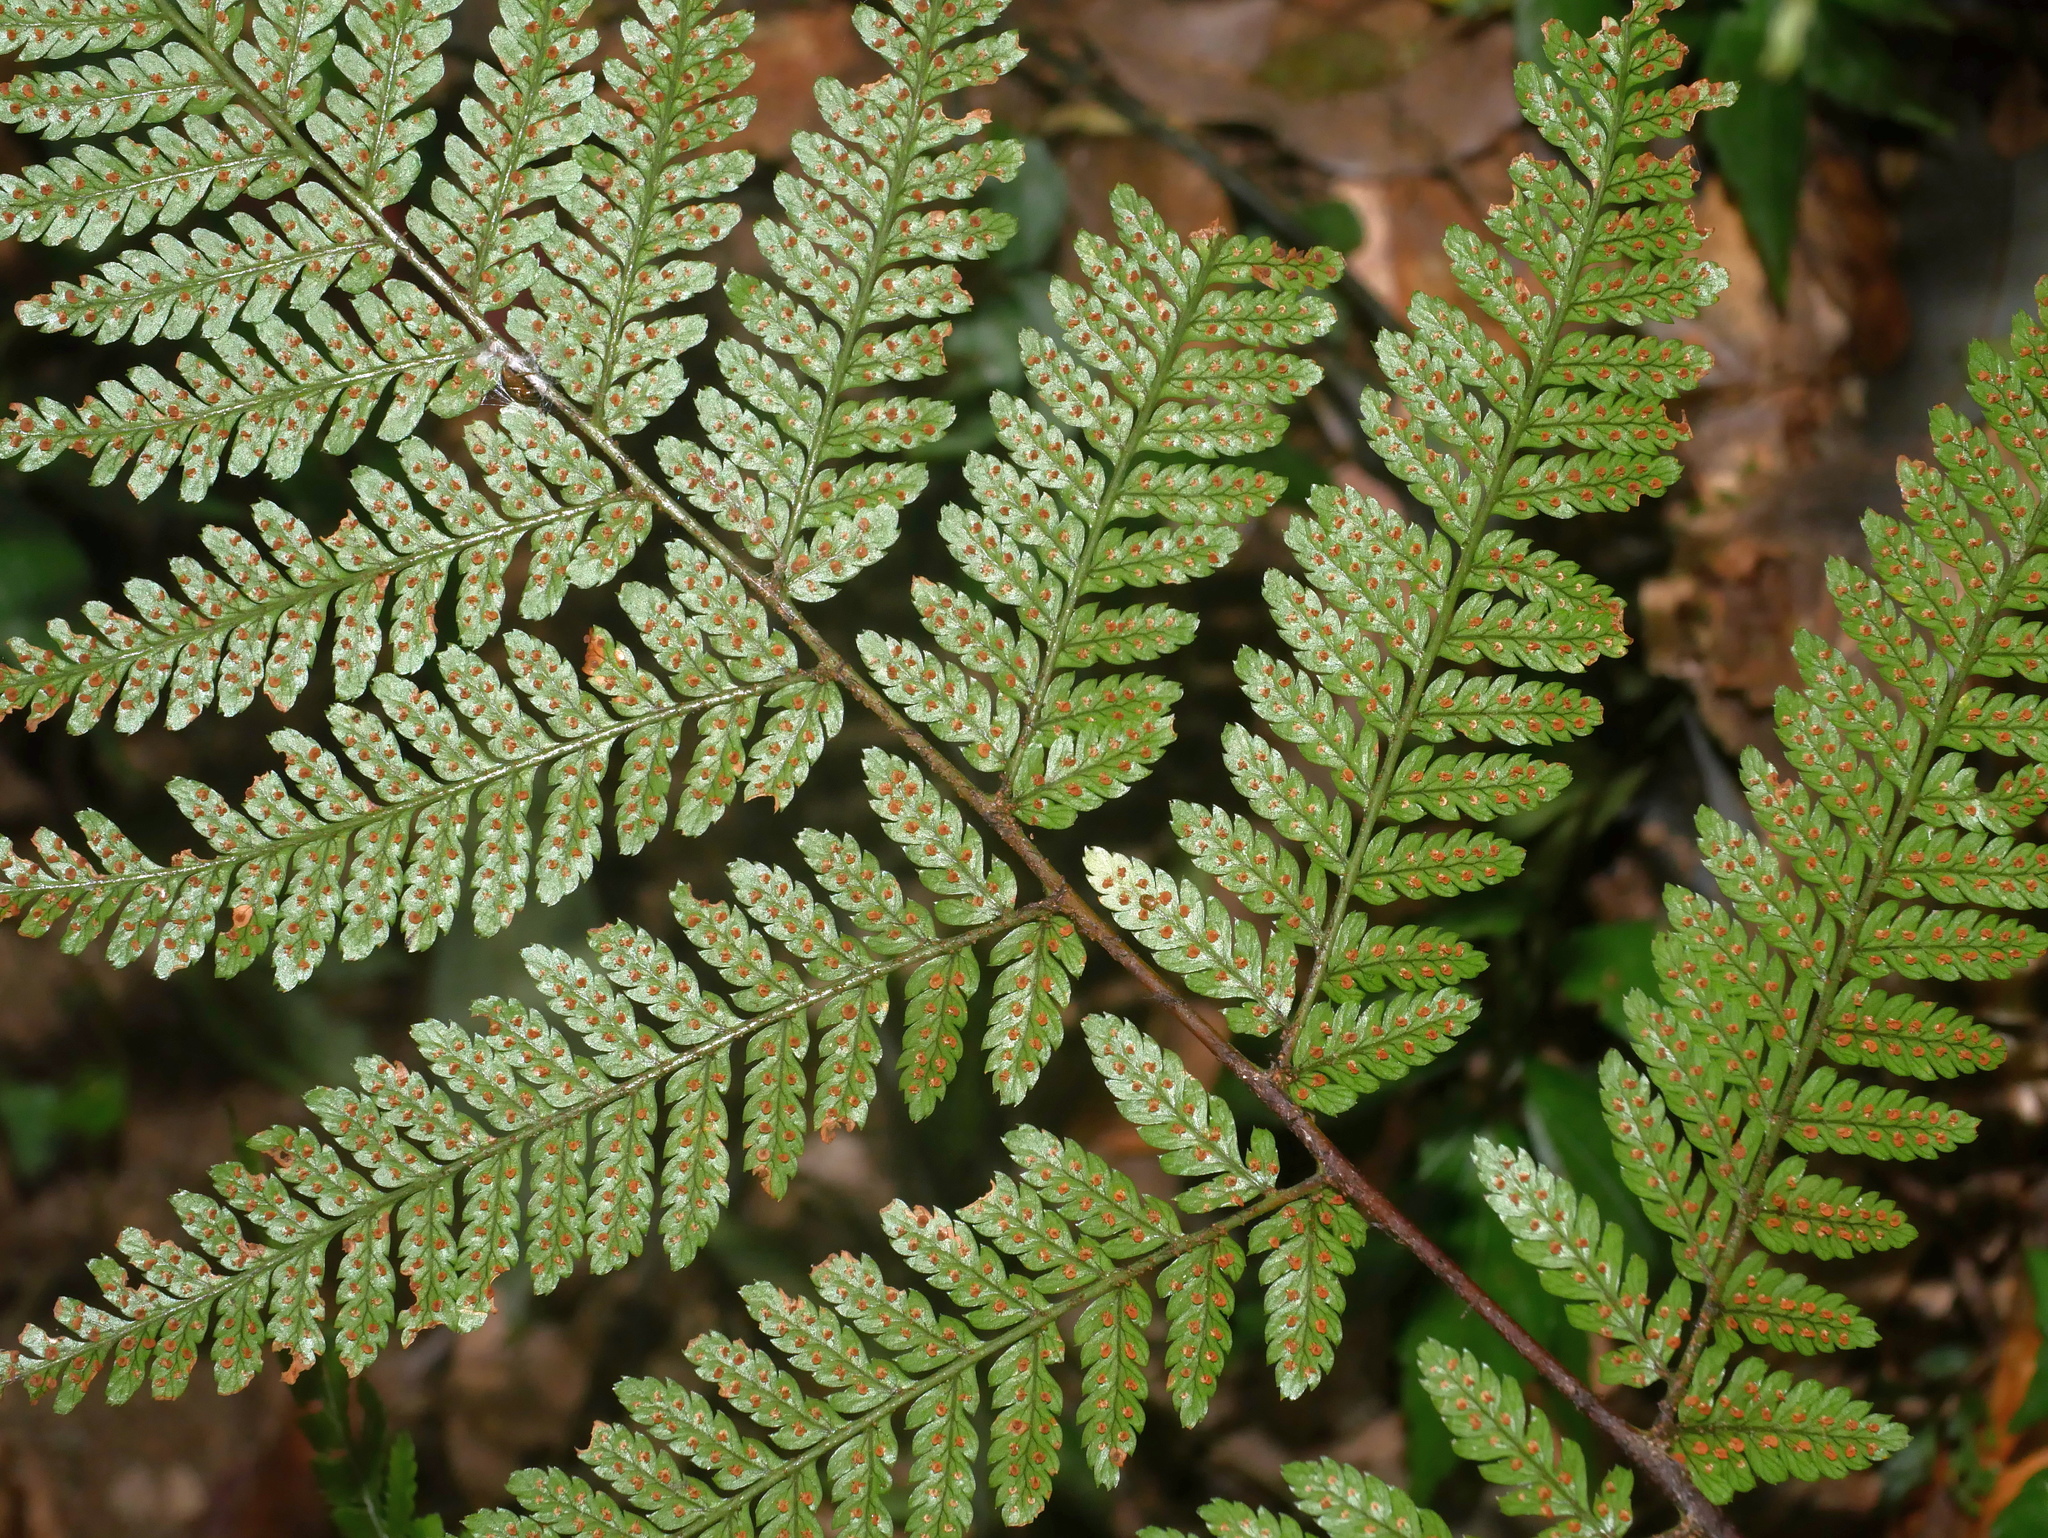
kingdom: Plantae
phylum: Tracheophyta
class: Polypodiopsida
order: Polypodiales
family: Dryopteridaceae
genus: Dryopteris
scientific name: Dryopteris formosana
